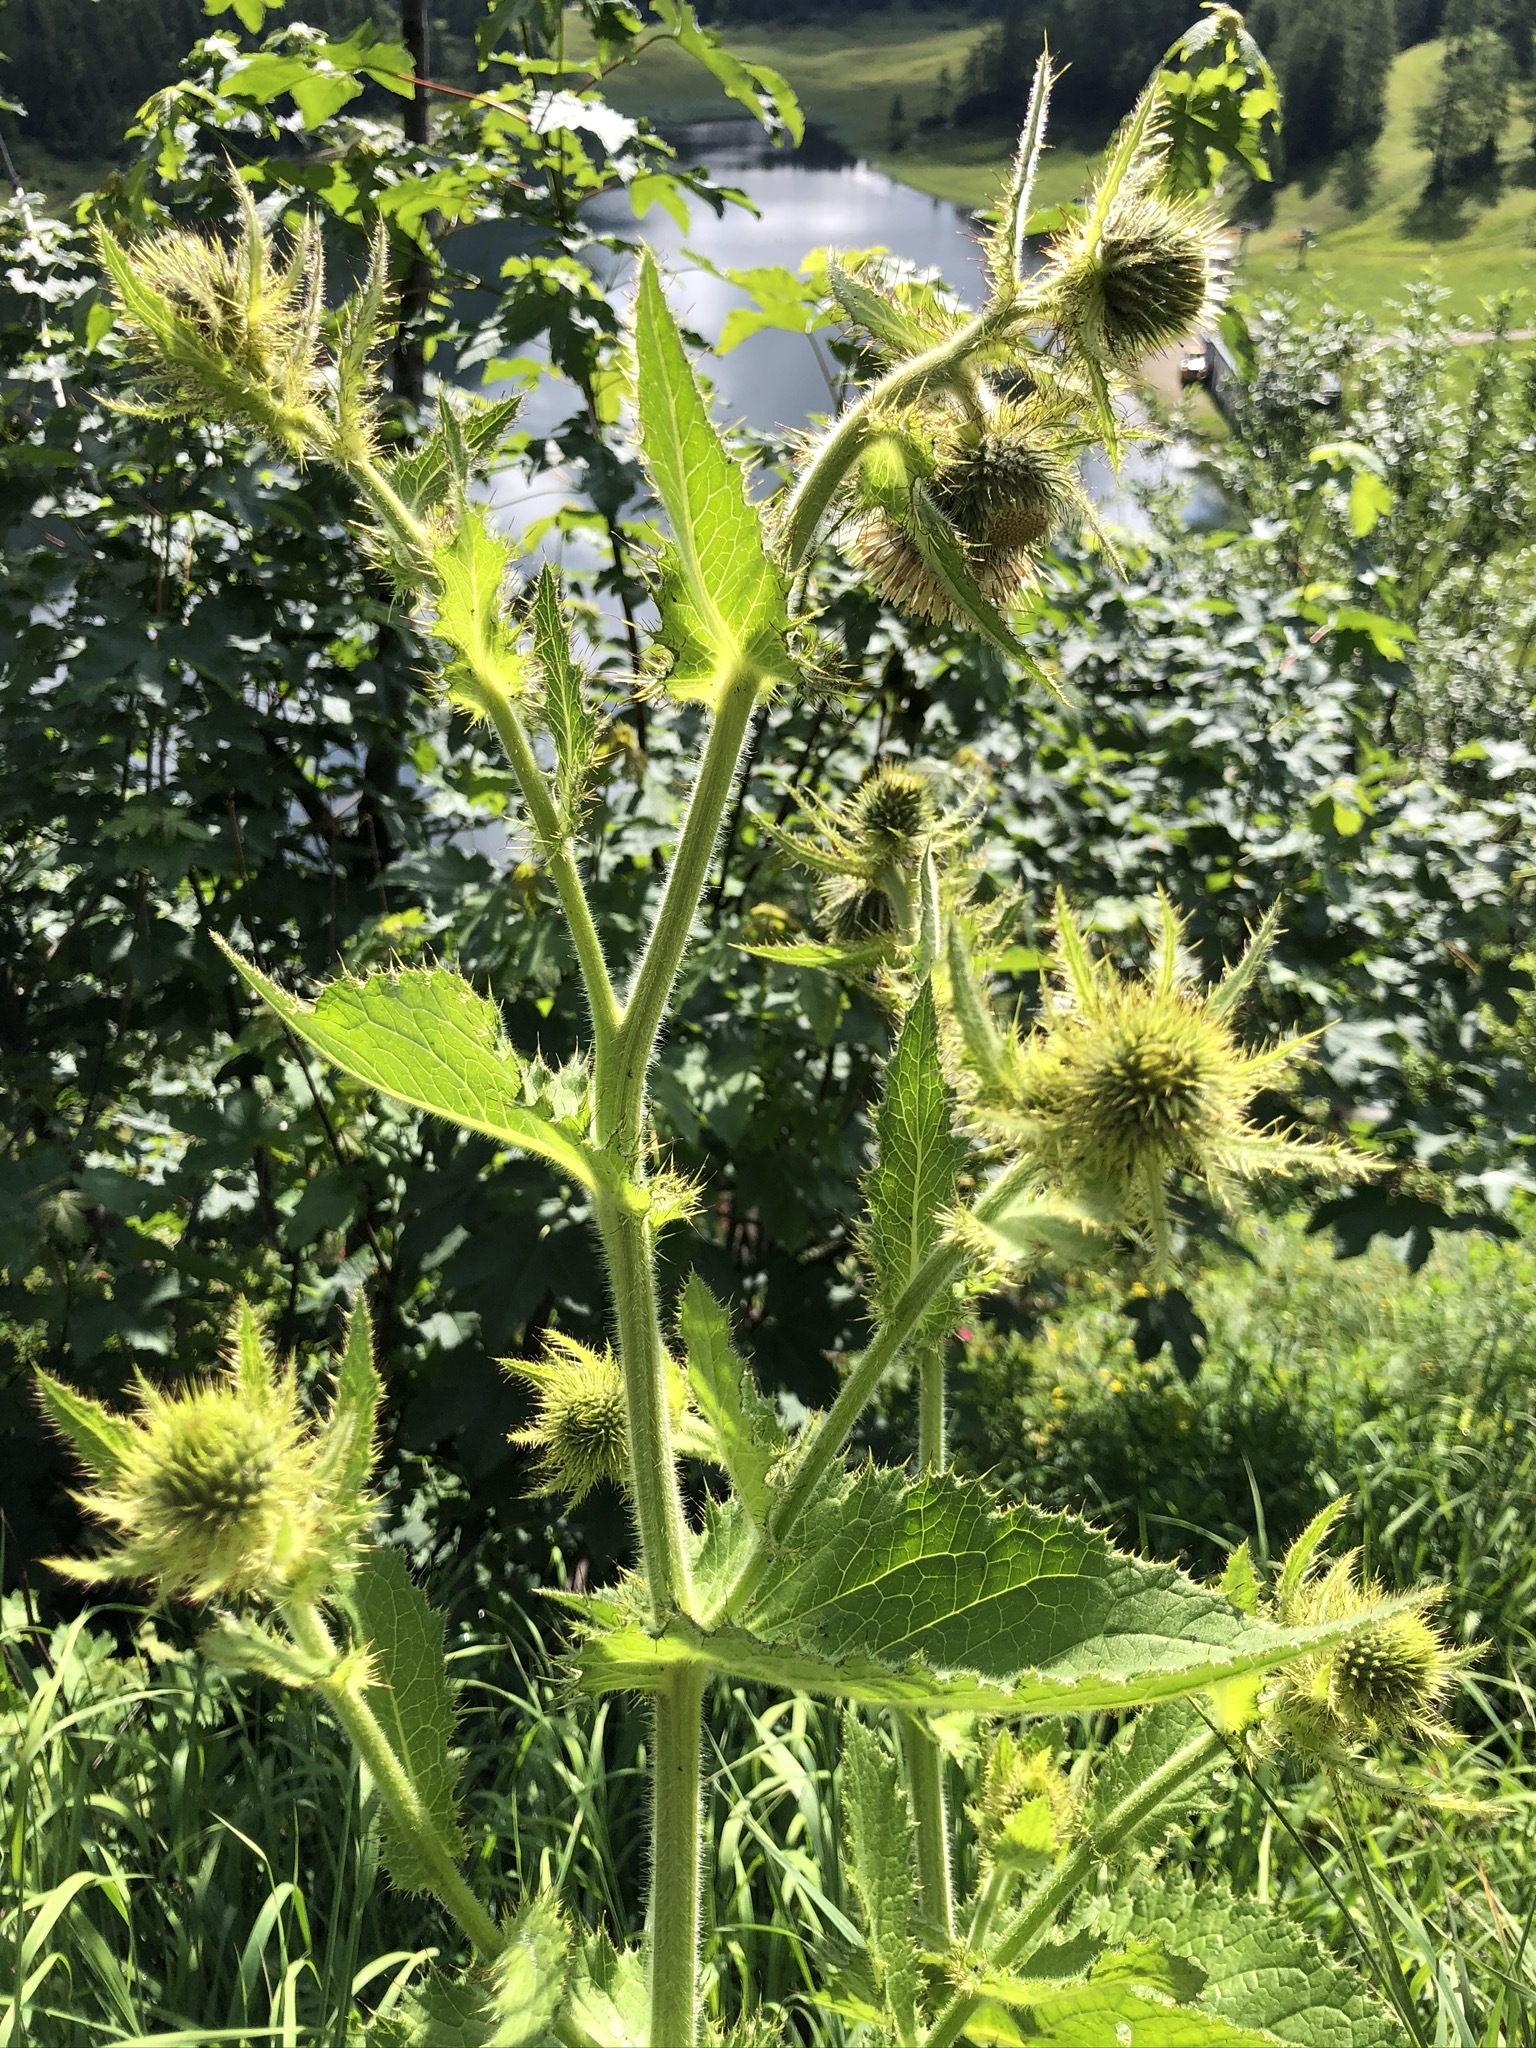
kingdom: Plantae
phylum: Tracheophyta
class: Magnoliopsida
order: Asterales
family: Asteraceae
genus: Cirsium
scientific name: Cirsium carniolicum
